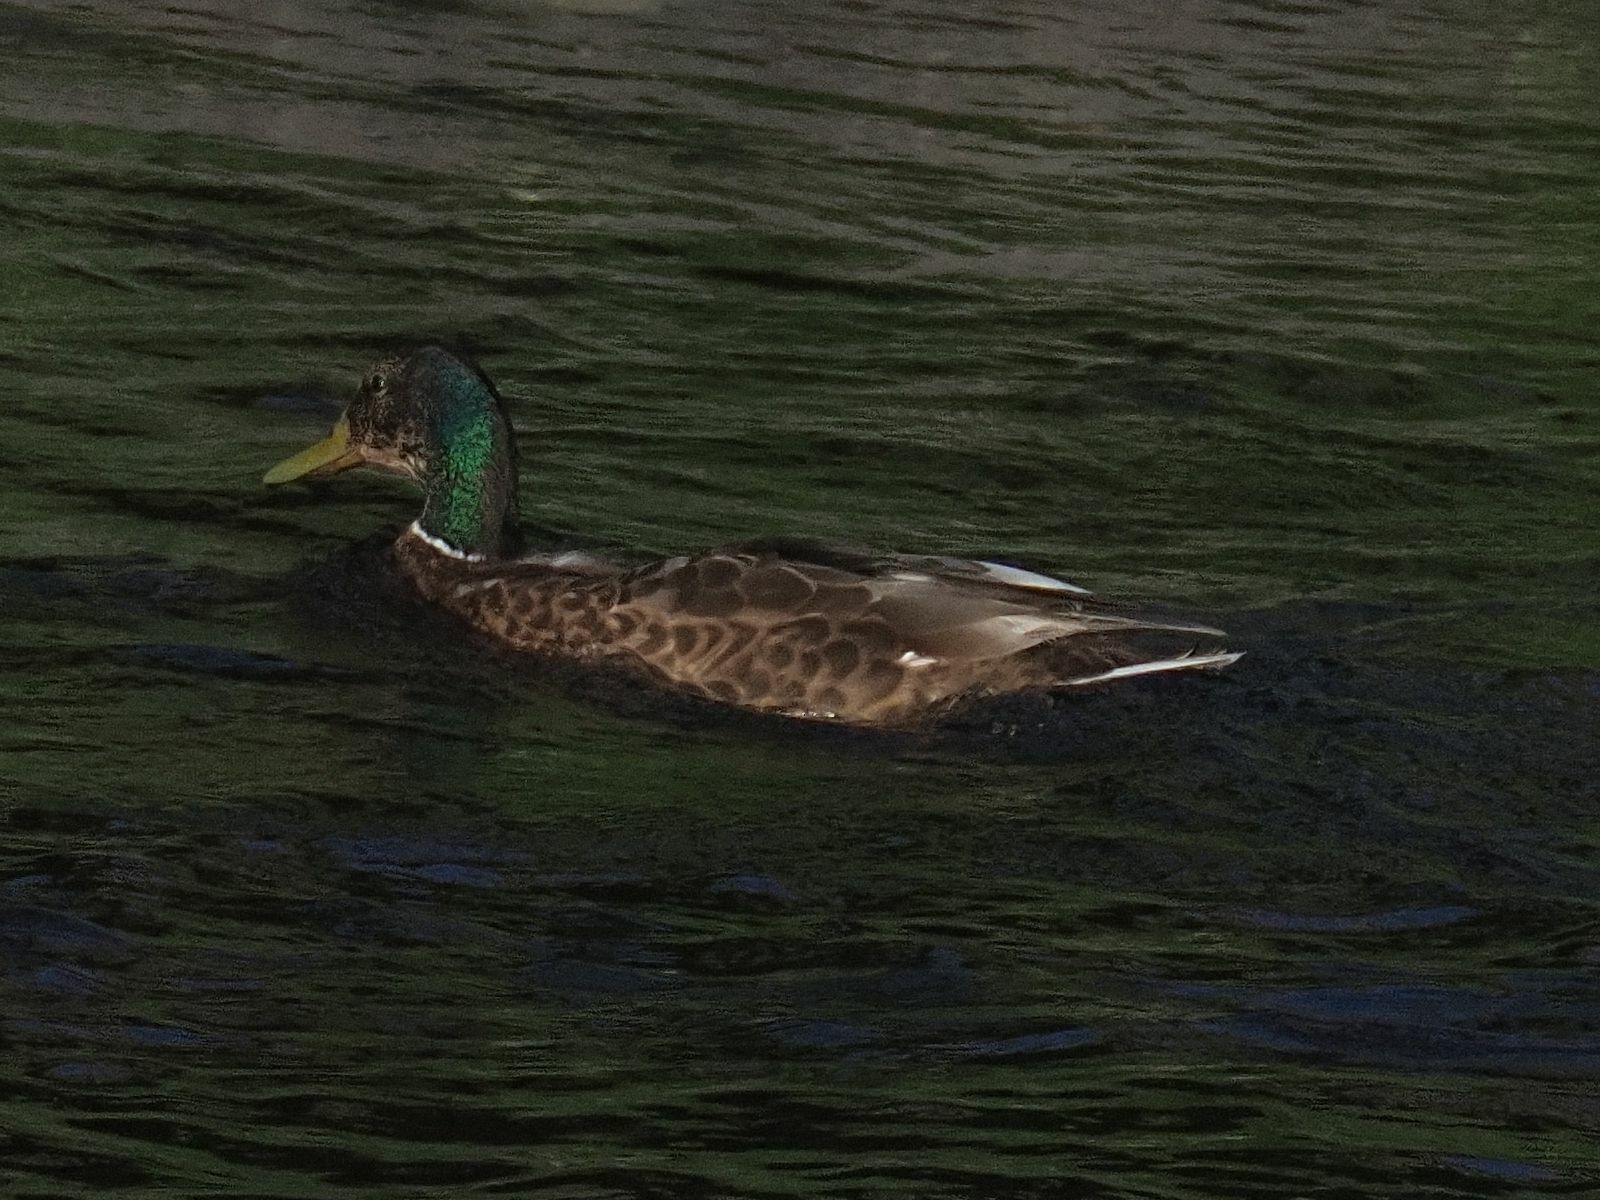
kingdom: Animalia
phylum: Chordata
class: Aves
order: Anseriformes
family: Anatidae
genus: Anas
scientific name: Anas platyrhynchos
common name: Mallard
